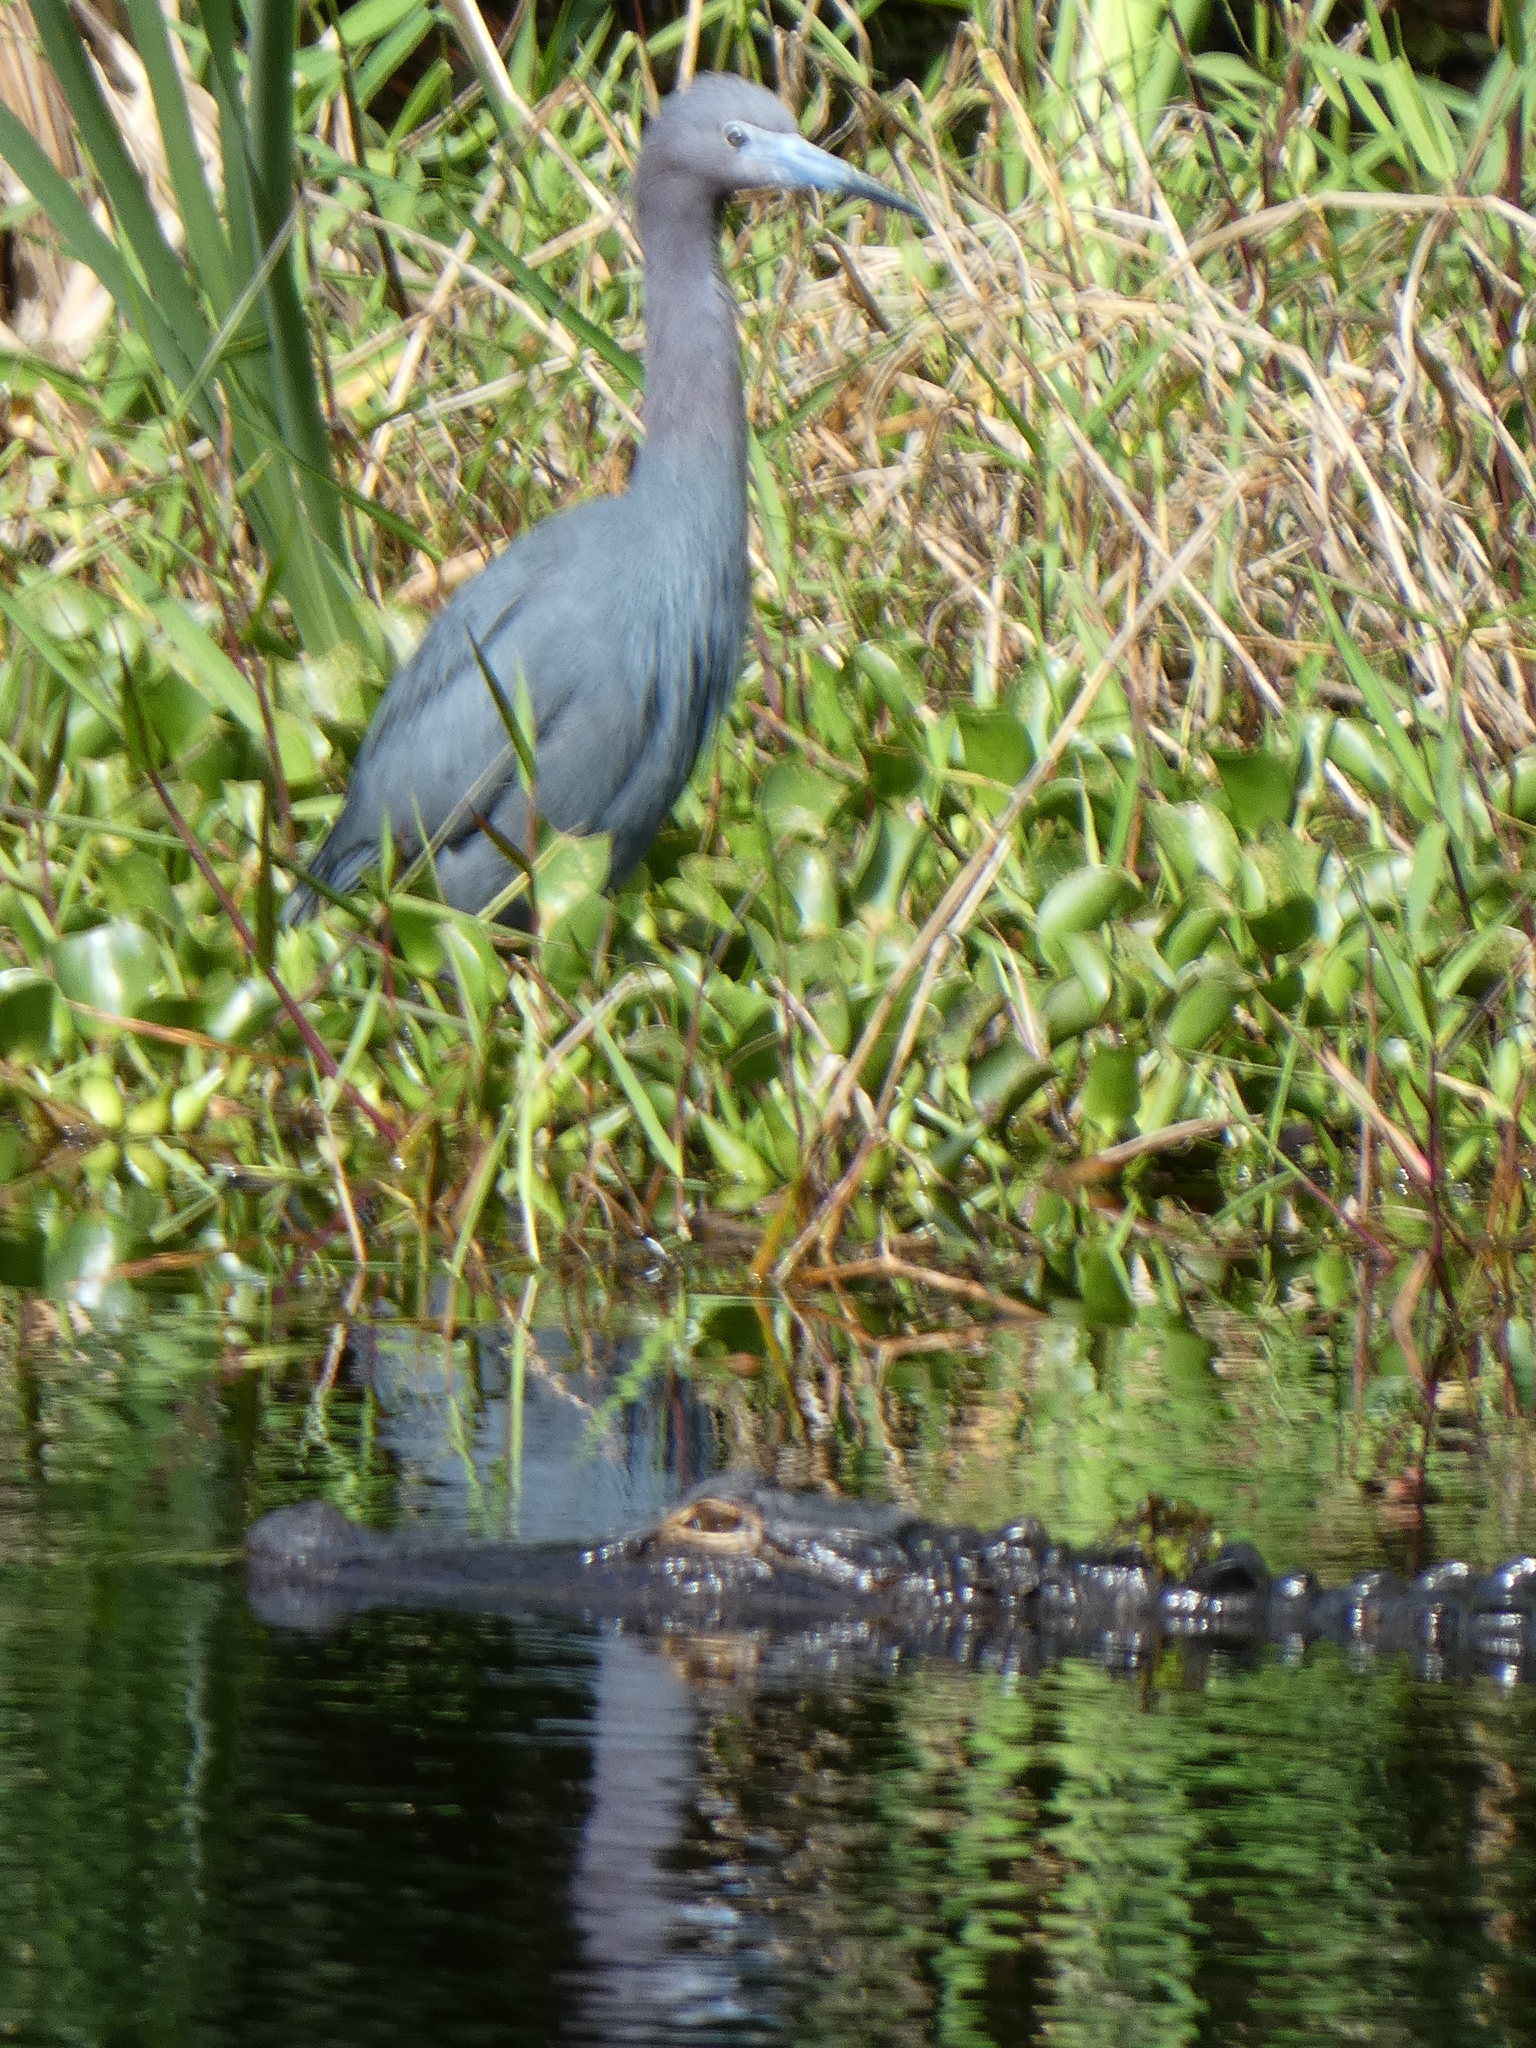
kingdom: Animalia
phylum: Chordata
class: Aves
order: Pelecaniformes
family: Ardeidae
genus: Egretta
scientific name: Egretta caerulea
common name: Little blue heron
